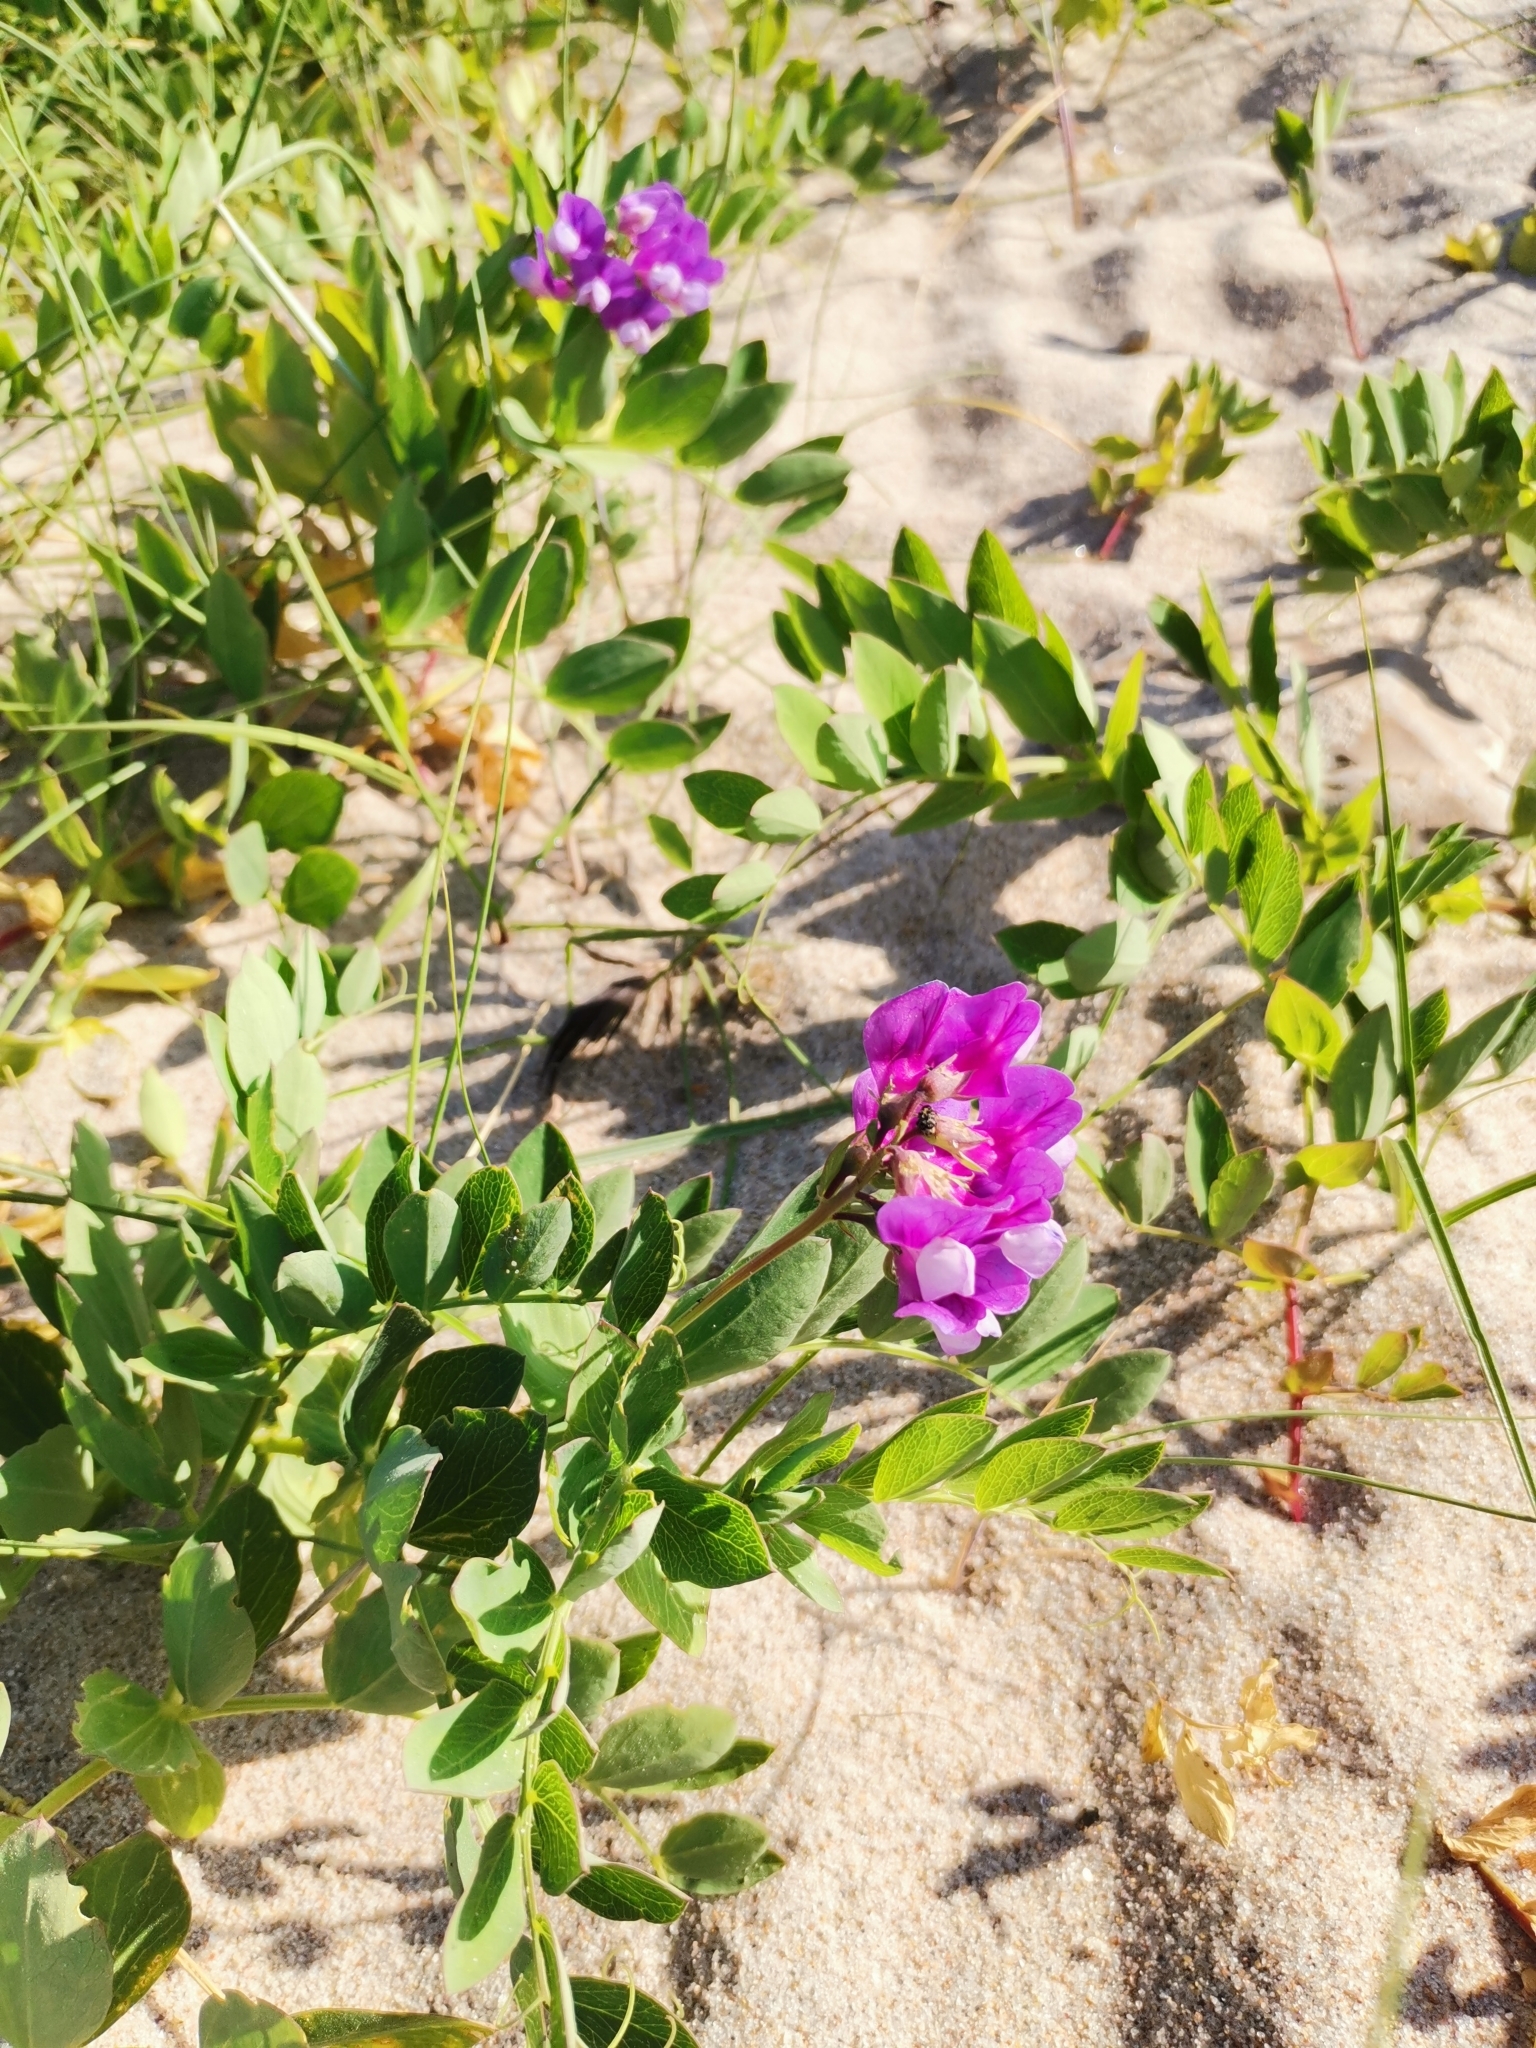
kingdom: Plantae
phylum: Tracheophyta
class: Magnoliopsida
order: Fabales
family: Fabaceae
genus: Lathyrus
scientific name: Lathyrus japonicus
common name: Sea pea
